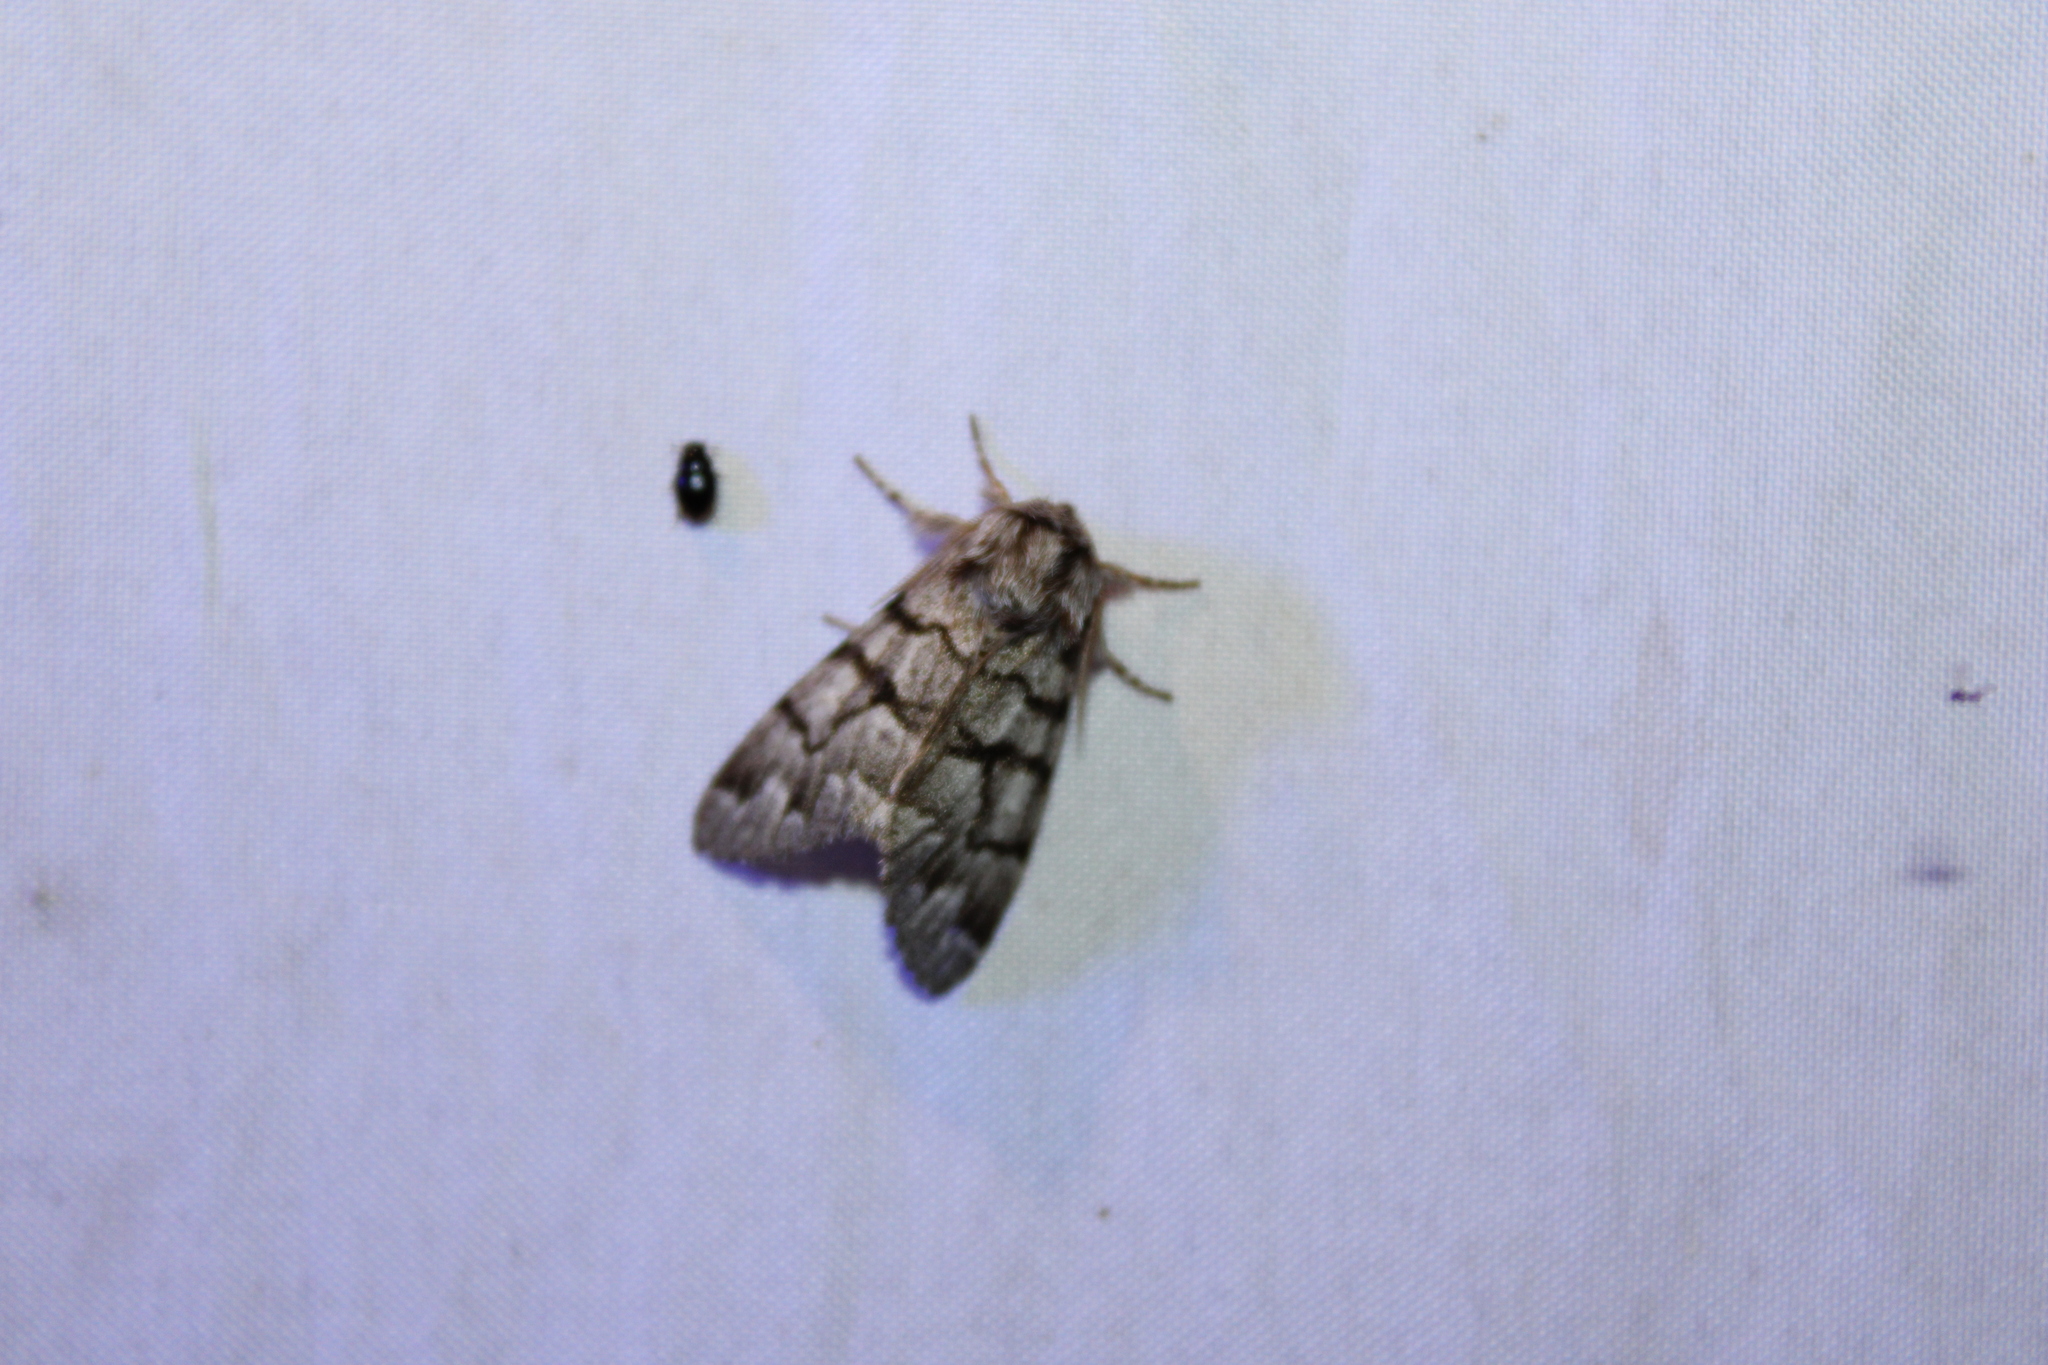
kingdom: Animalia
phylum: Arthropoda
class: Insecta
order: Lepidoptera
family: Noctuidae
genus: Panthea
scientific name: Panthea furcilla
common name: Eastern panthea moth
